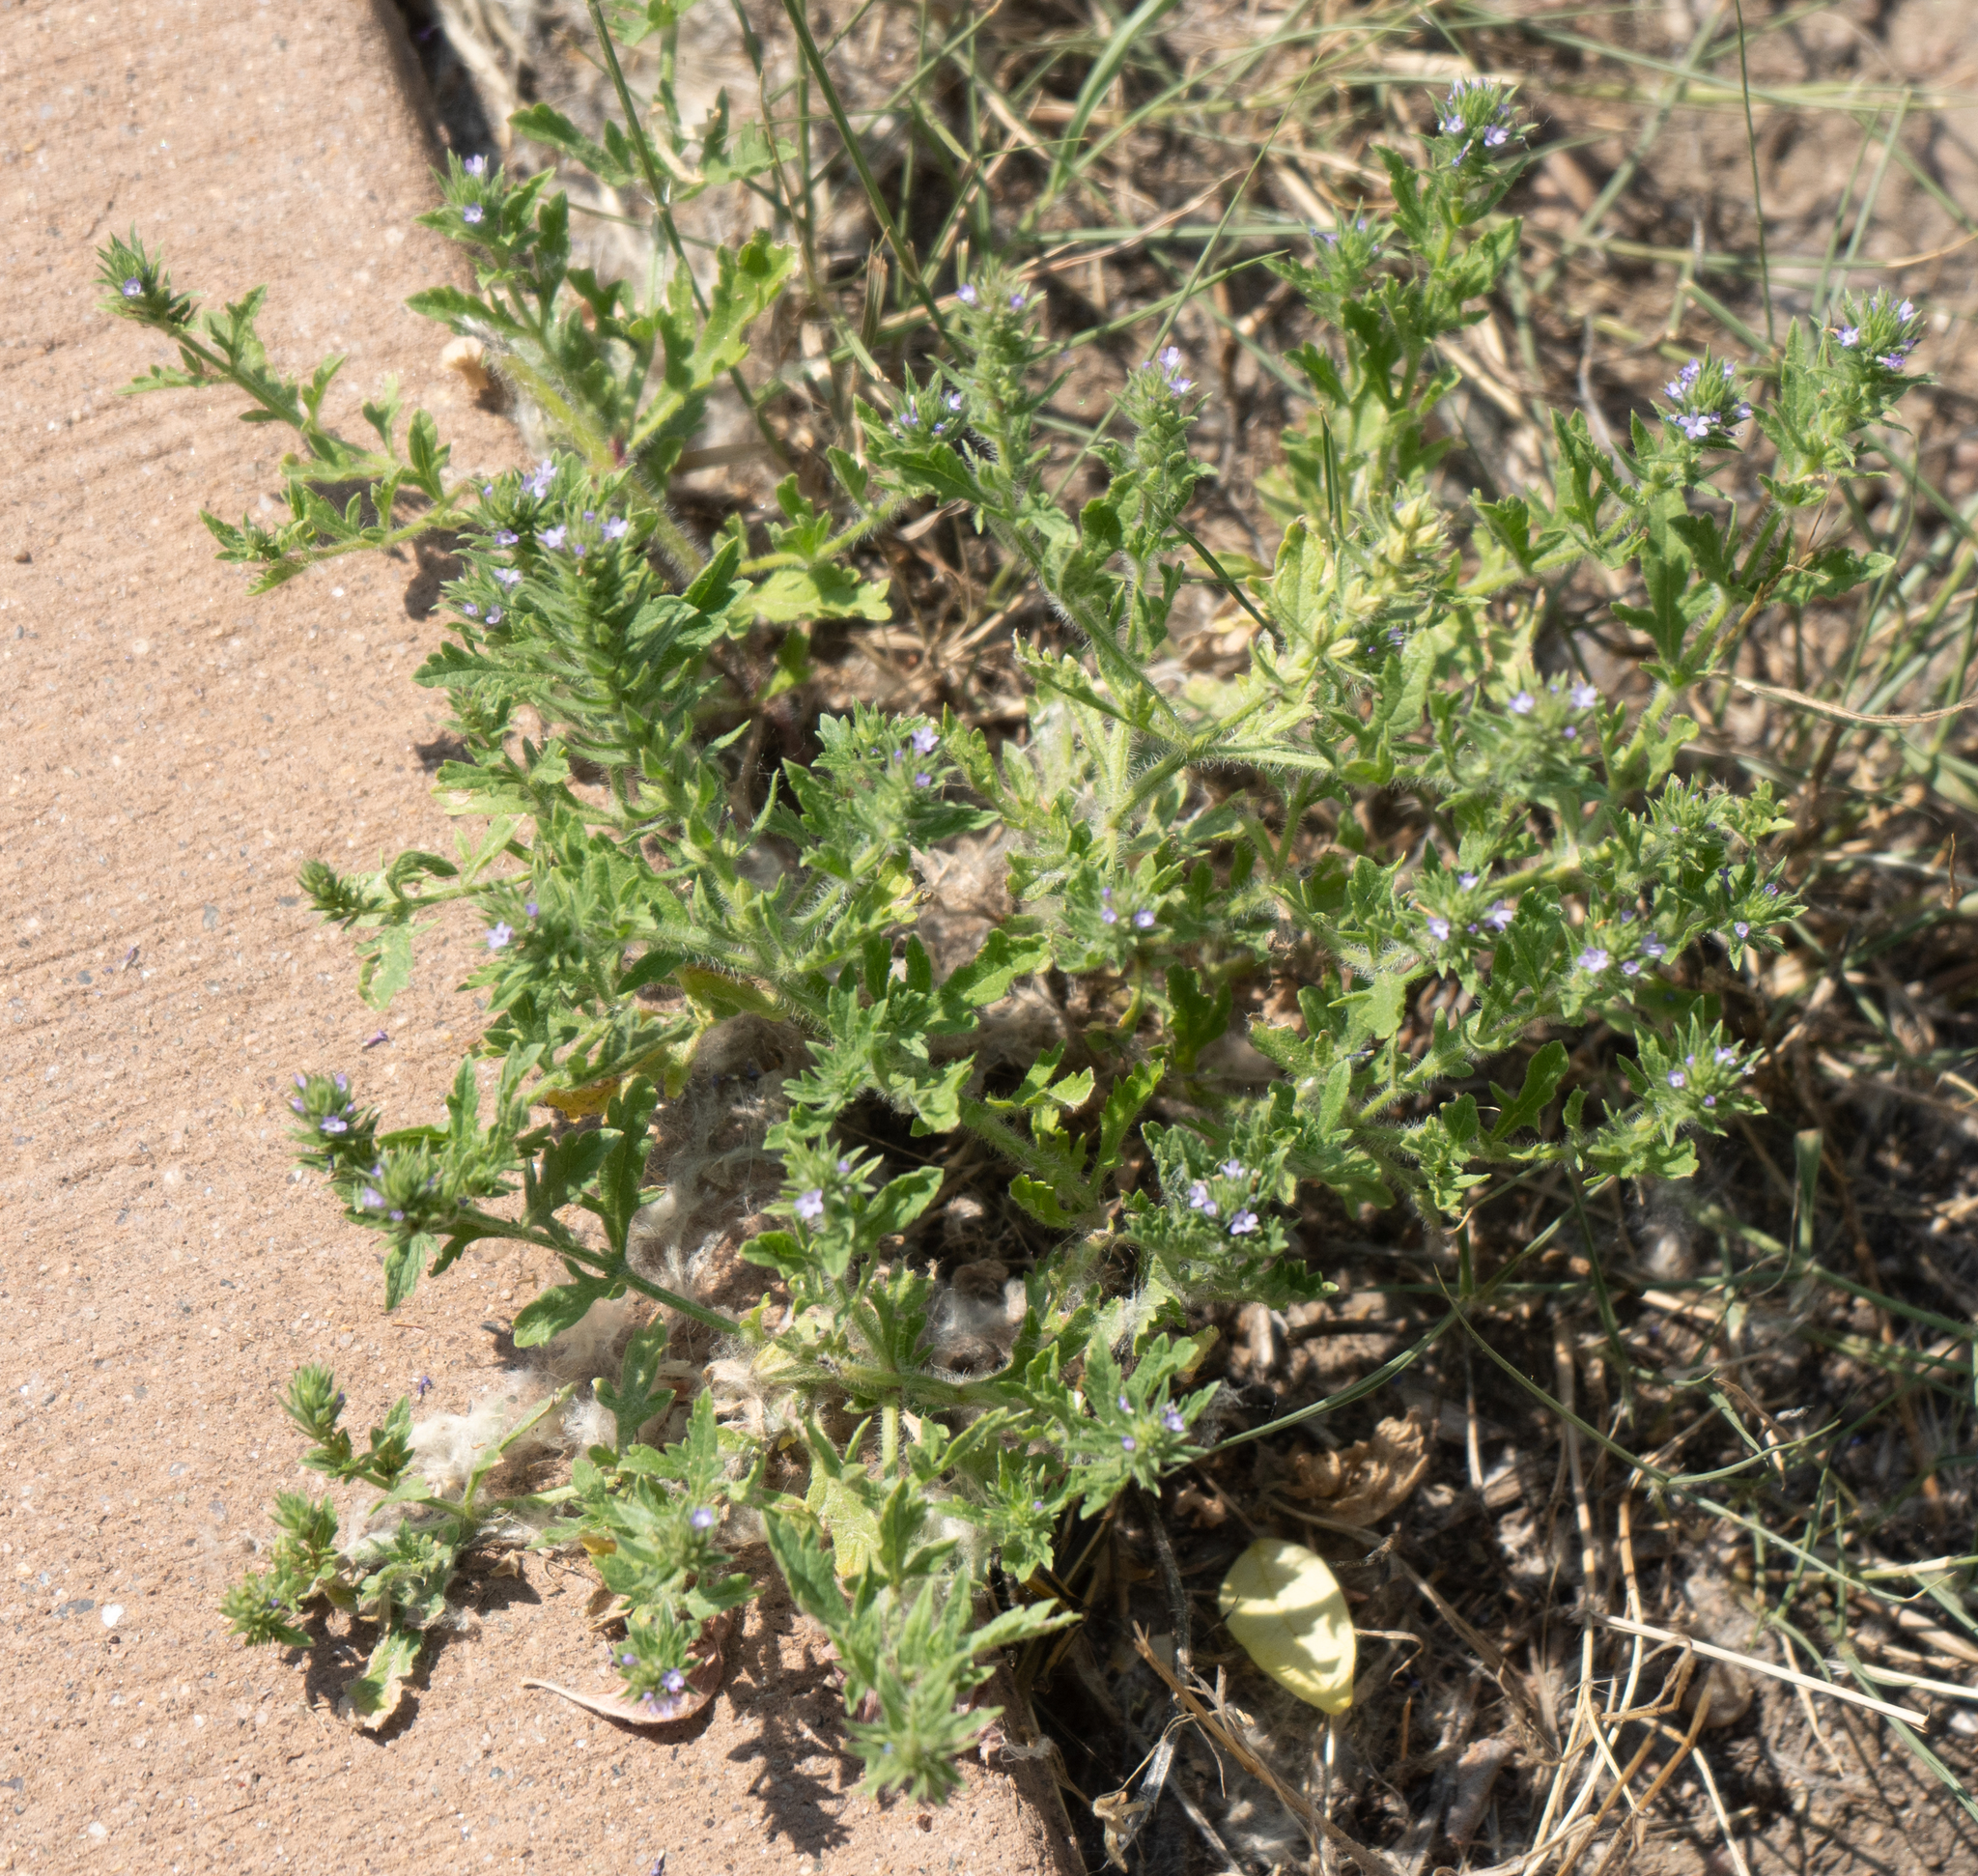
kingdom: Plantae
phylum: Tracheophyta
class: Magnoliopsida
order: Lamiales
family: Verbenaceae
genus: Verbena
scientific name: Verbena bracteata
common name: Bracted vervain
